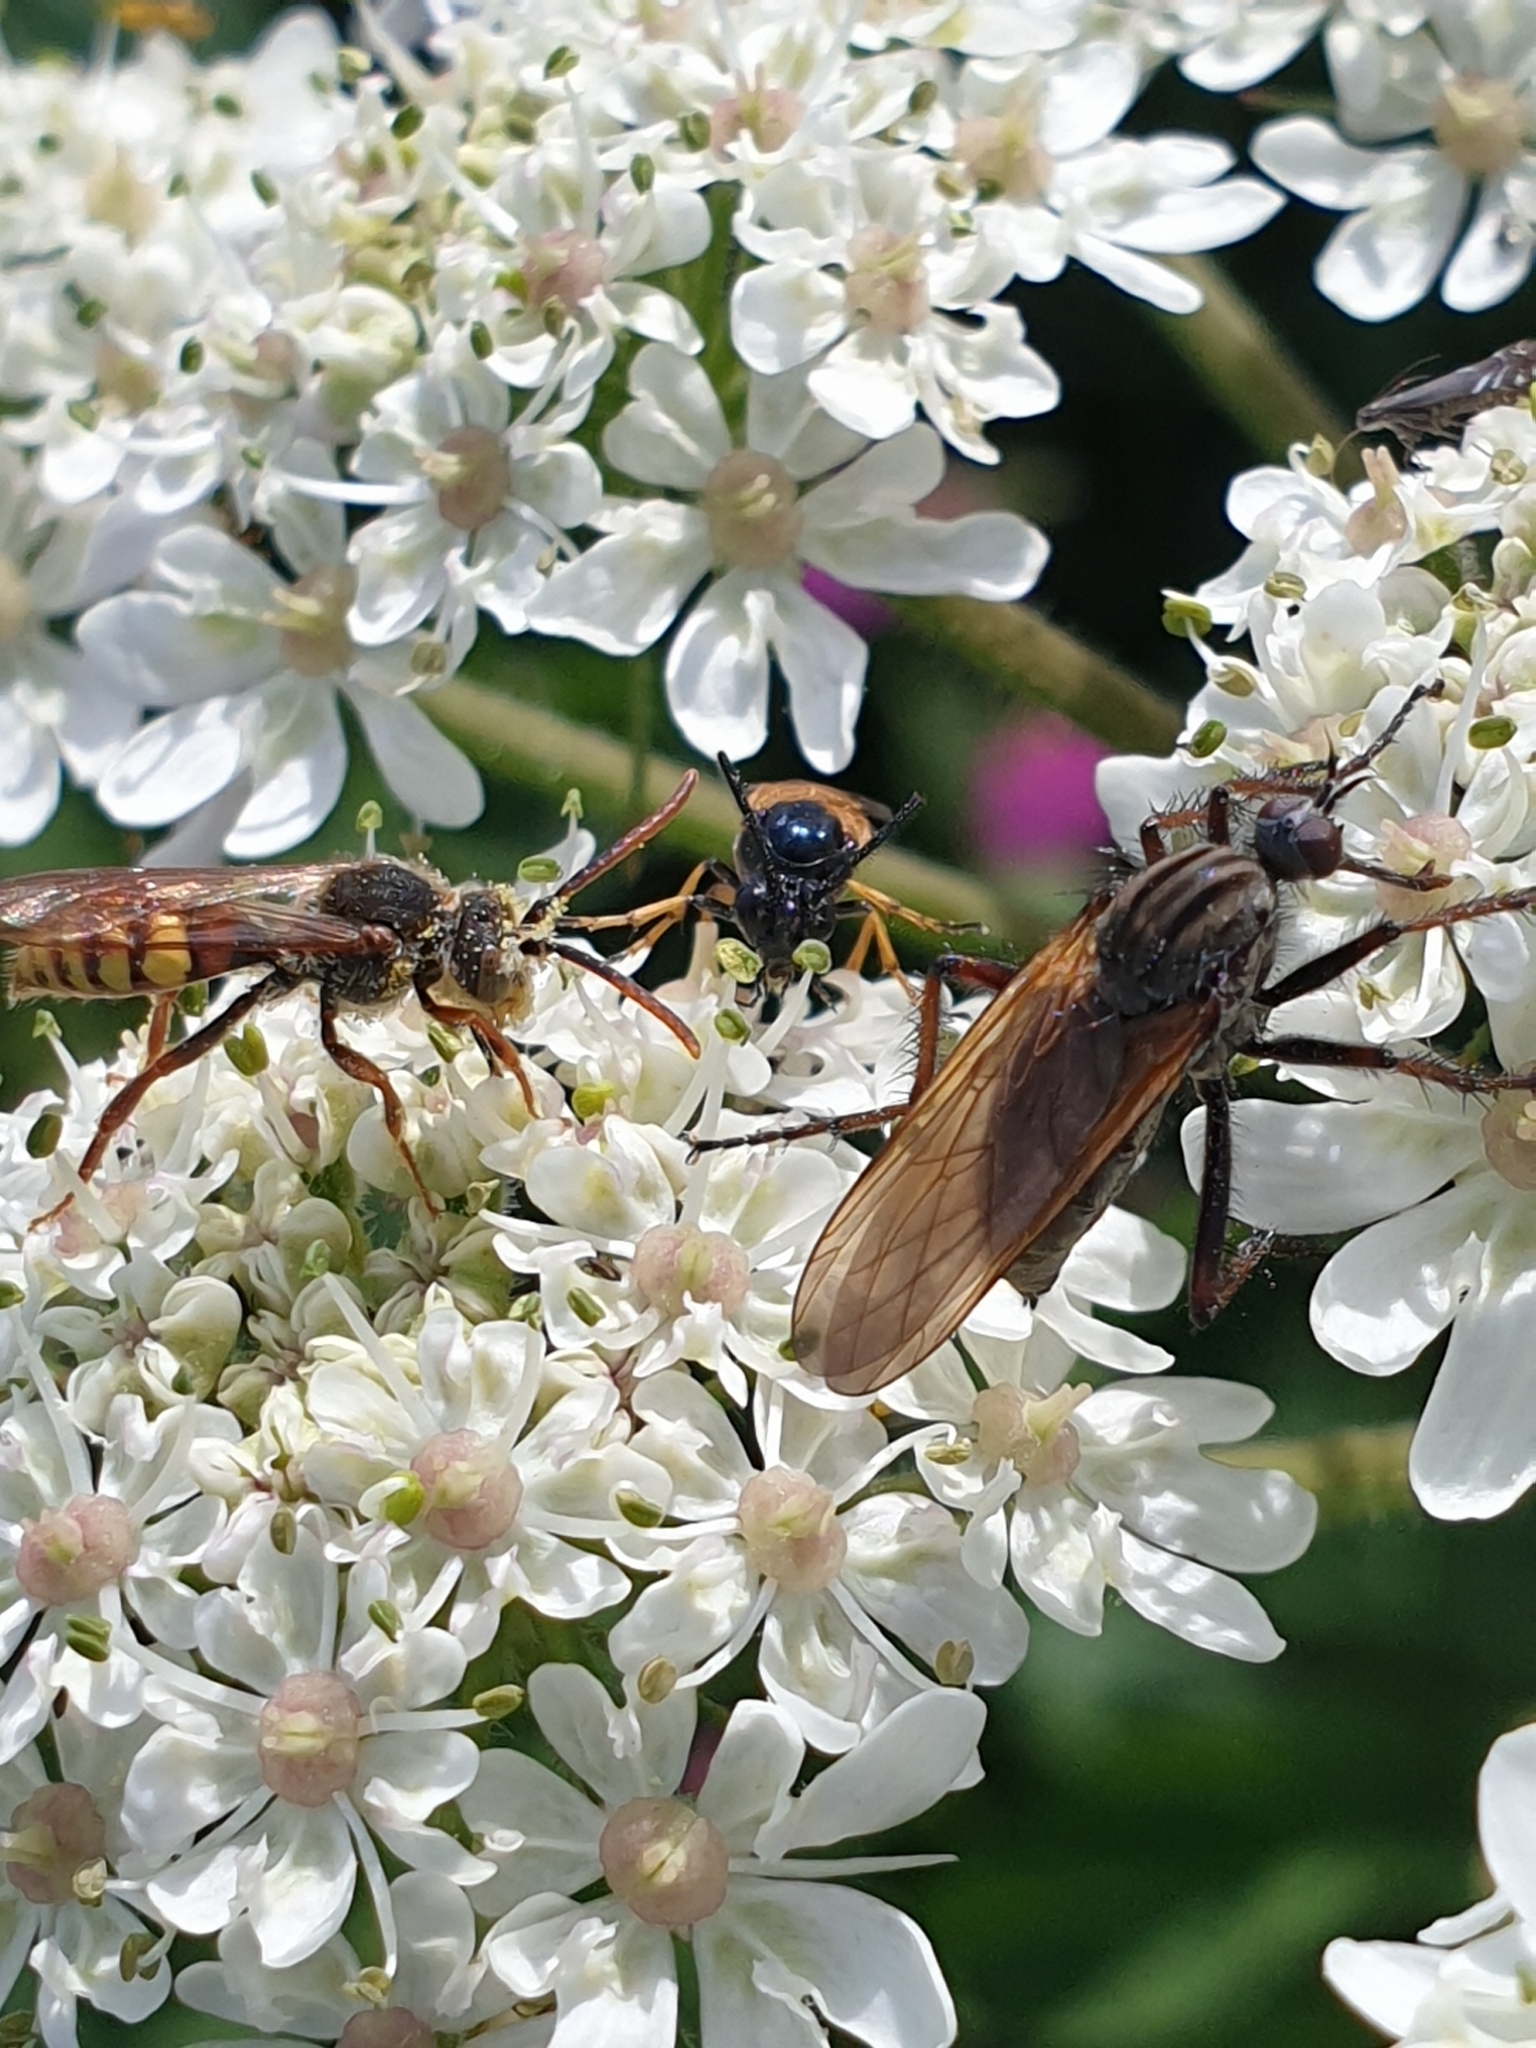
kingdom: Animalia
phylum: Arthropoda
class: Insecta
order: Diptera
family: Empididae
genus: Empis
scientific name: Empis tessellata
